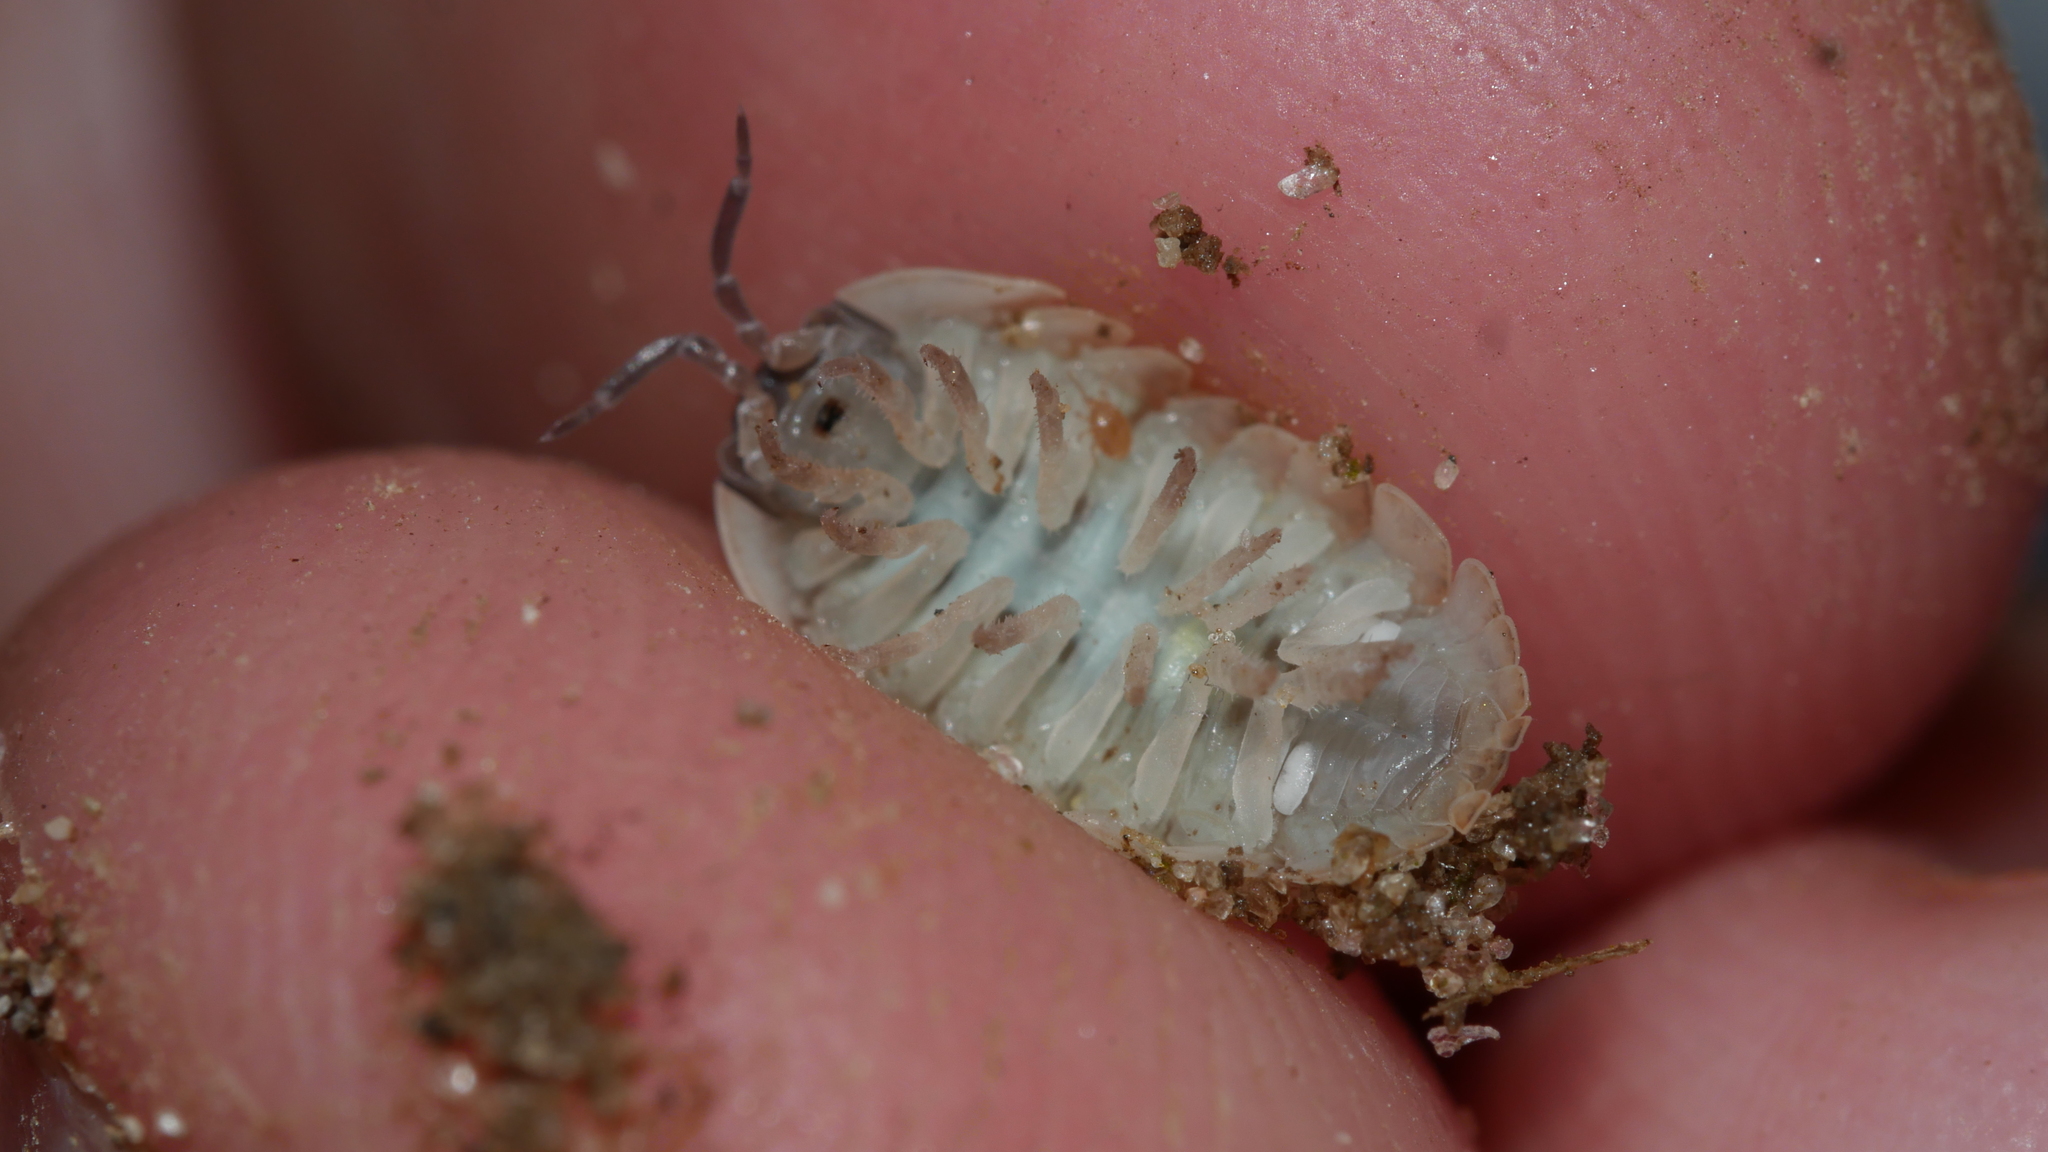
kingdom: Animalia
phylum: Arthropoda
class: Malacostraca
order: Isopoda
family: Armadillidiidae
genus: Armadillidium
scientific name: Armadillidium vulgare
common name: Common pill woodlouse
